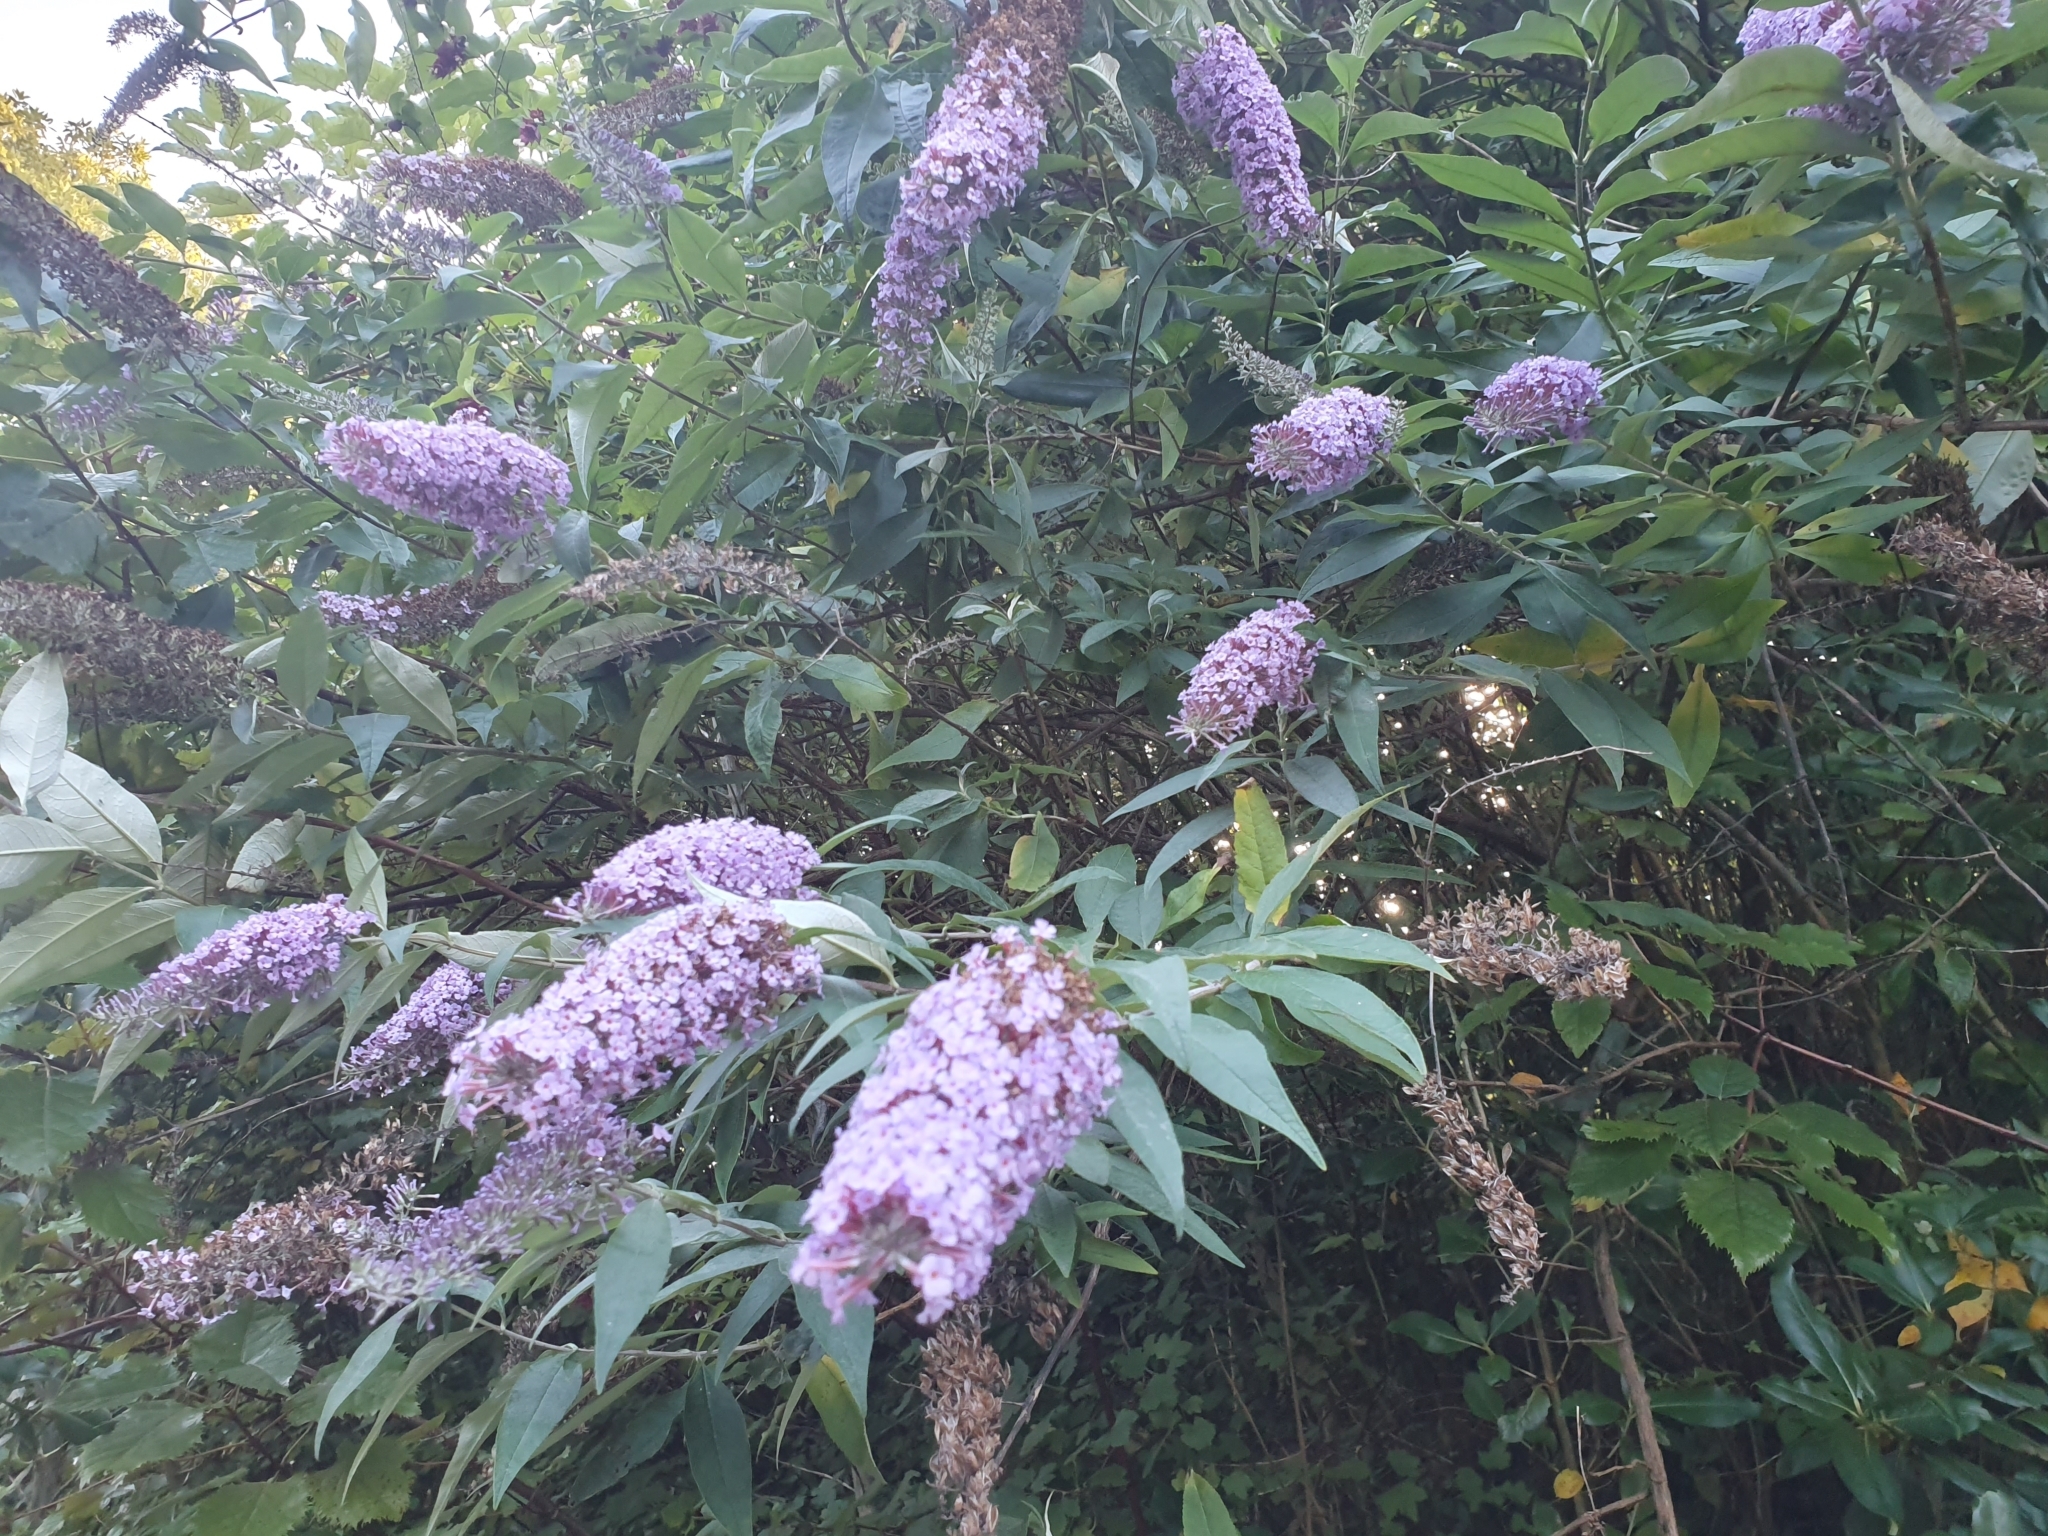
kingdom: Plantae
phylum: Tracheophyta
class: Magnoliopsida
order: Lamiales
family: Scrophulariaceae
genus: Buddleja
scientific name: Buddleja davidii
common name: Butterfly-bush
